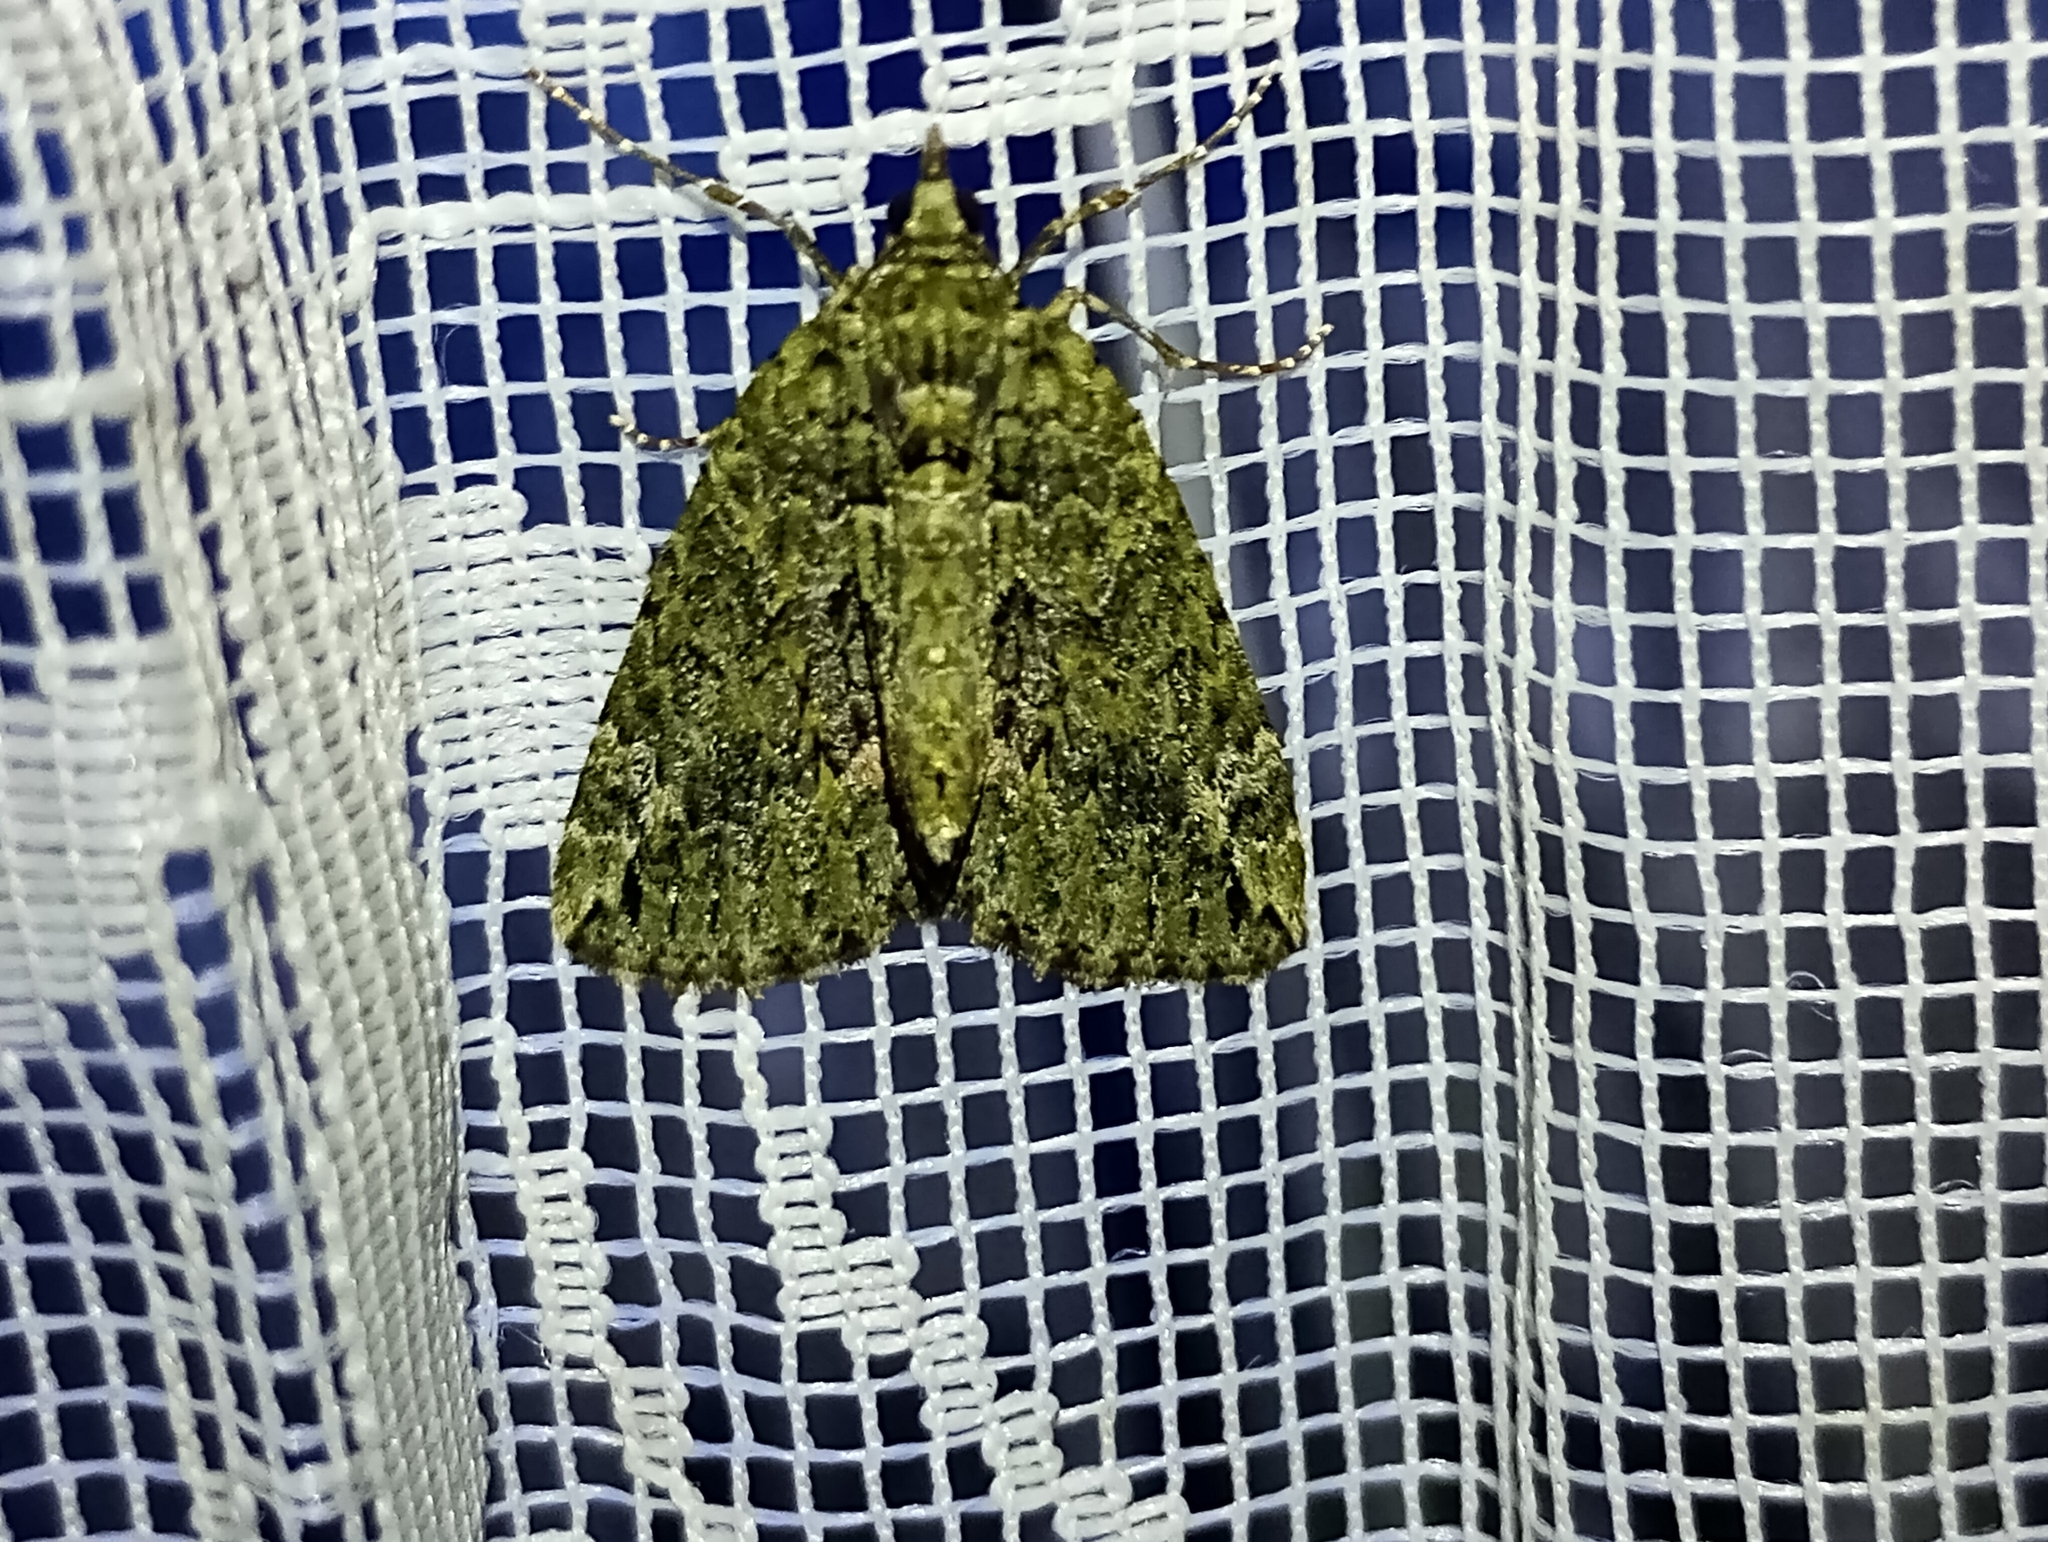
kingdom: Animalia
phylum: Arthropoda
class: Insecta
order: Lepidoptera
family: Geometridae
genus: Chloroclysta
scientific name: Chloroclysta siterata
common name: Red-green carpet
